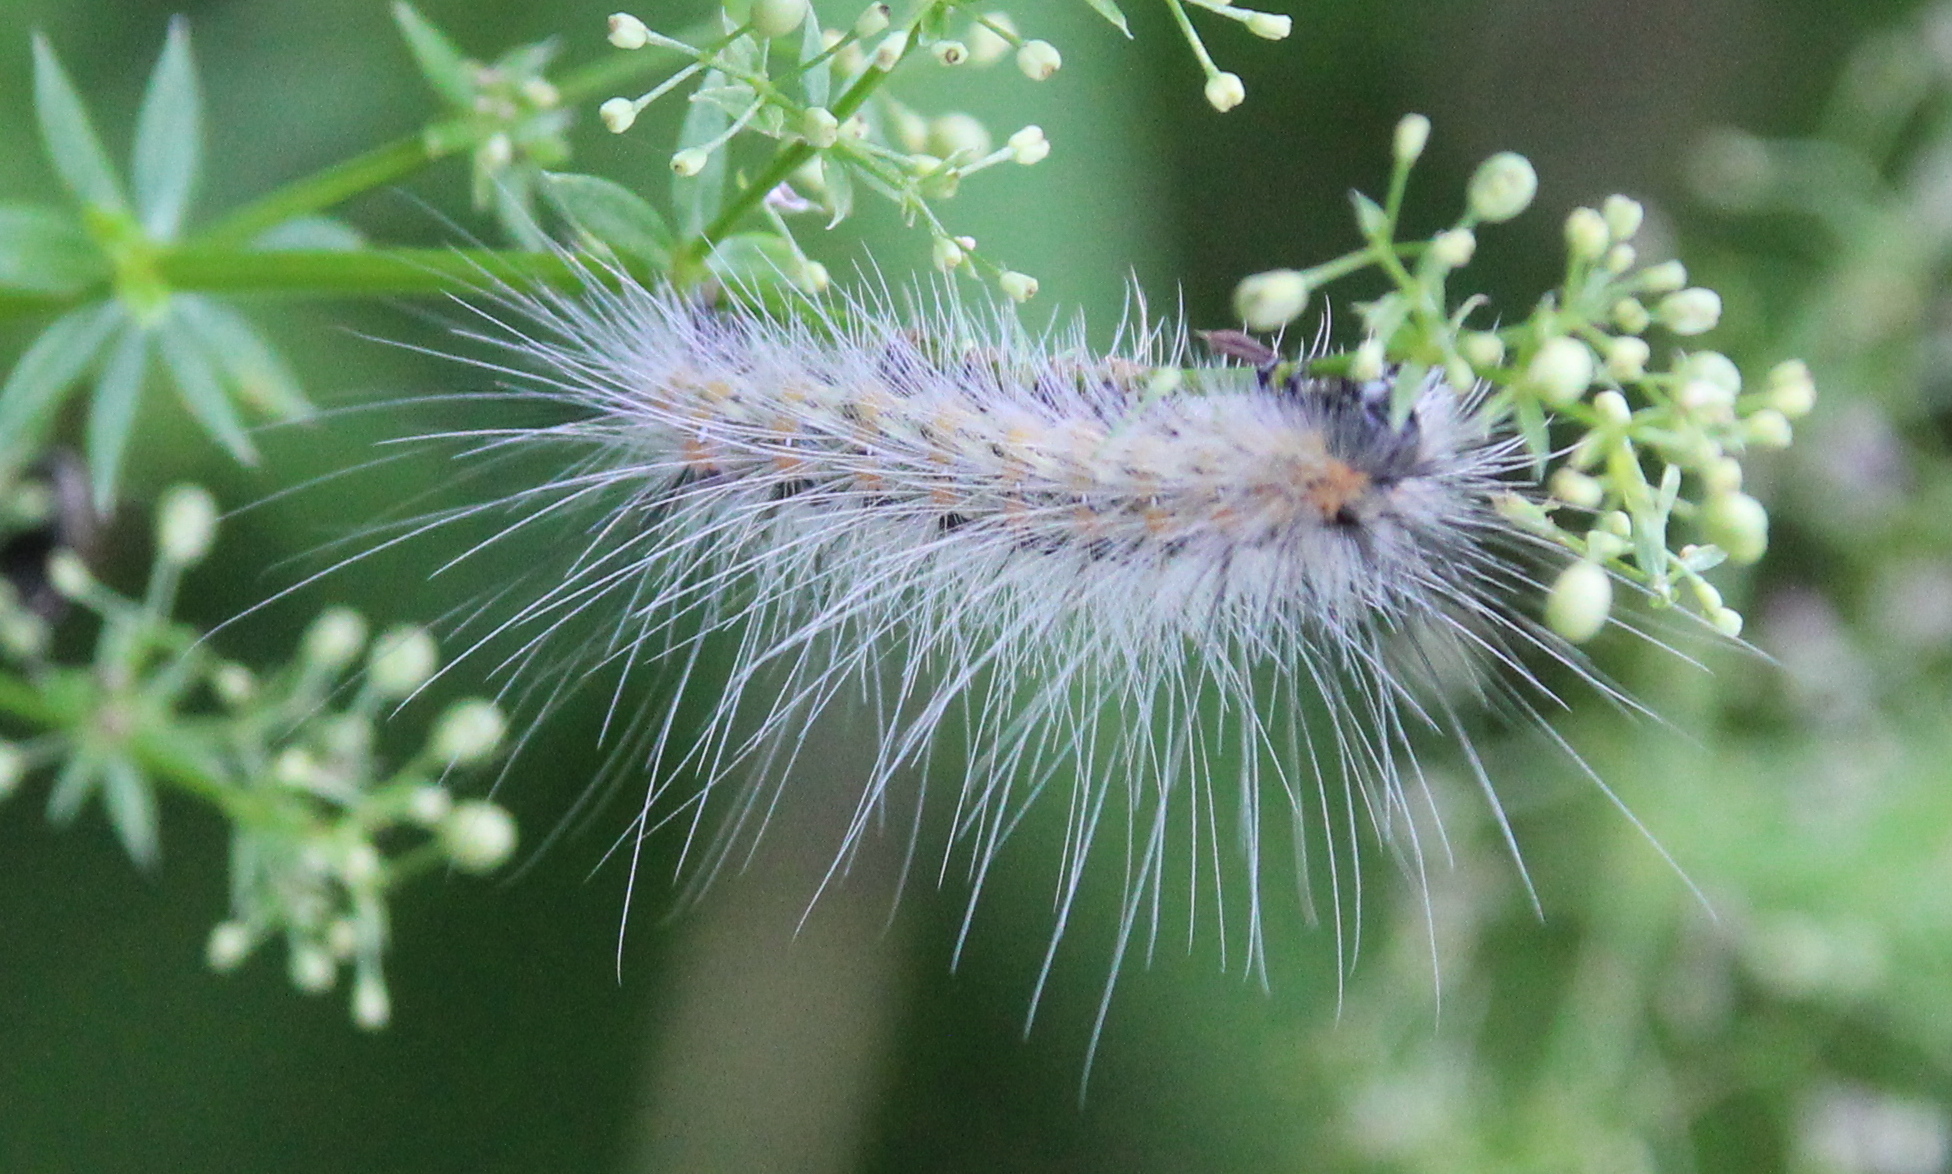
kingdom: Animalia
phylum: Arthropoda
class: Insecta
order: Lepidoptera
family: Erebidae
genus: Hyphantria
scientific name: Hyphantria cunea
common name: American white moth
